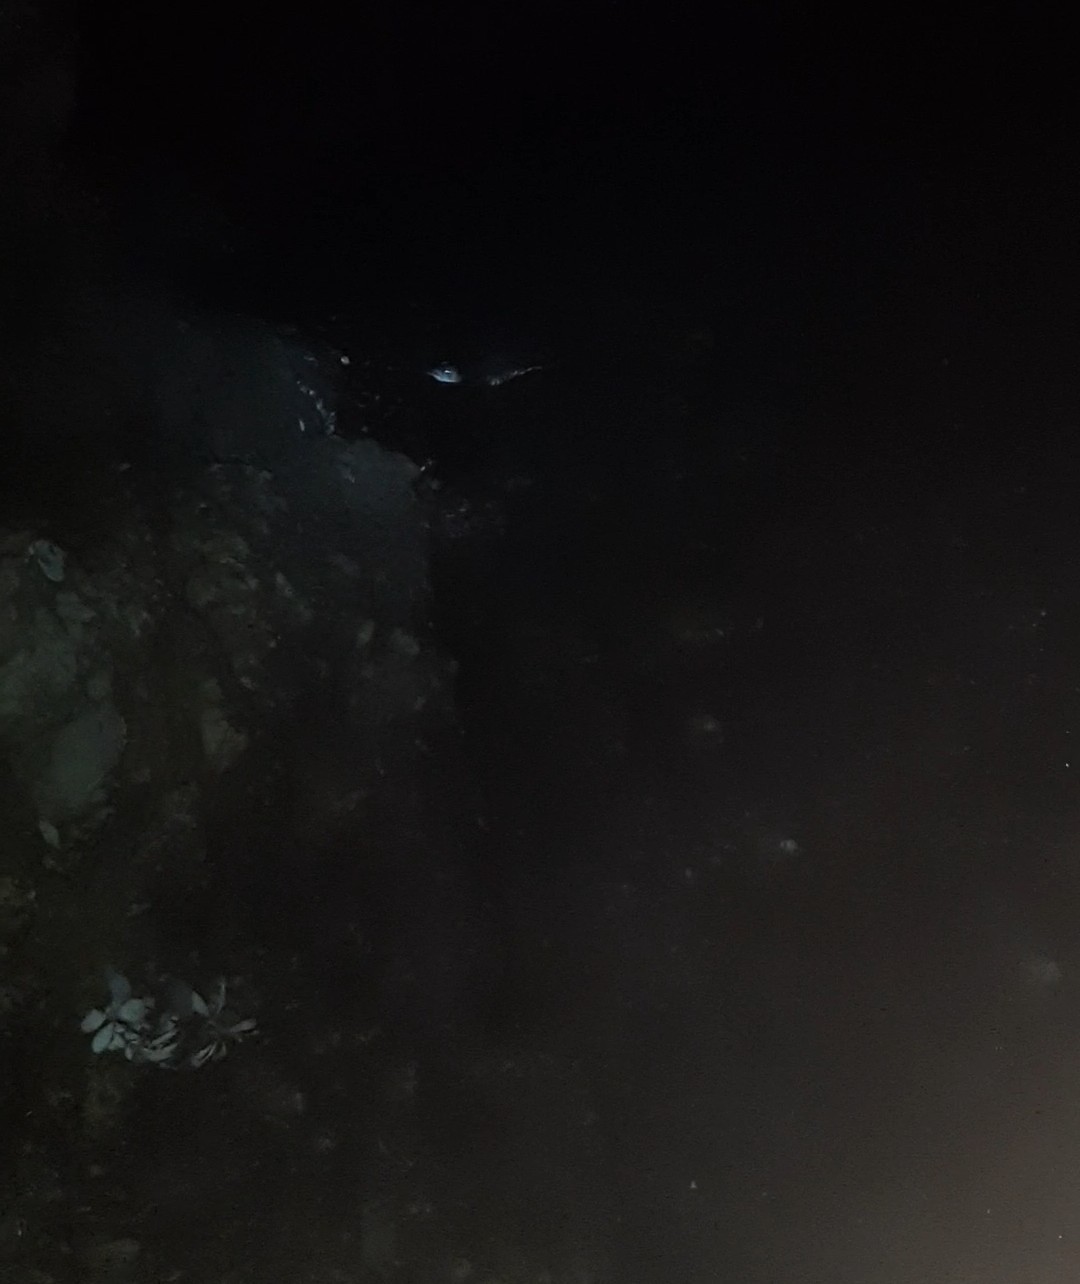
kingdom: Animalia
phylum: Chordata
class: Aves
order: Sphenisciformes
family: Spheniscidae
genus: Eudyptula
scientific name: Eudyptula minor
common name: Little penguin
